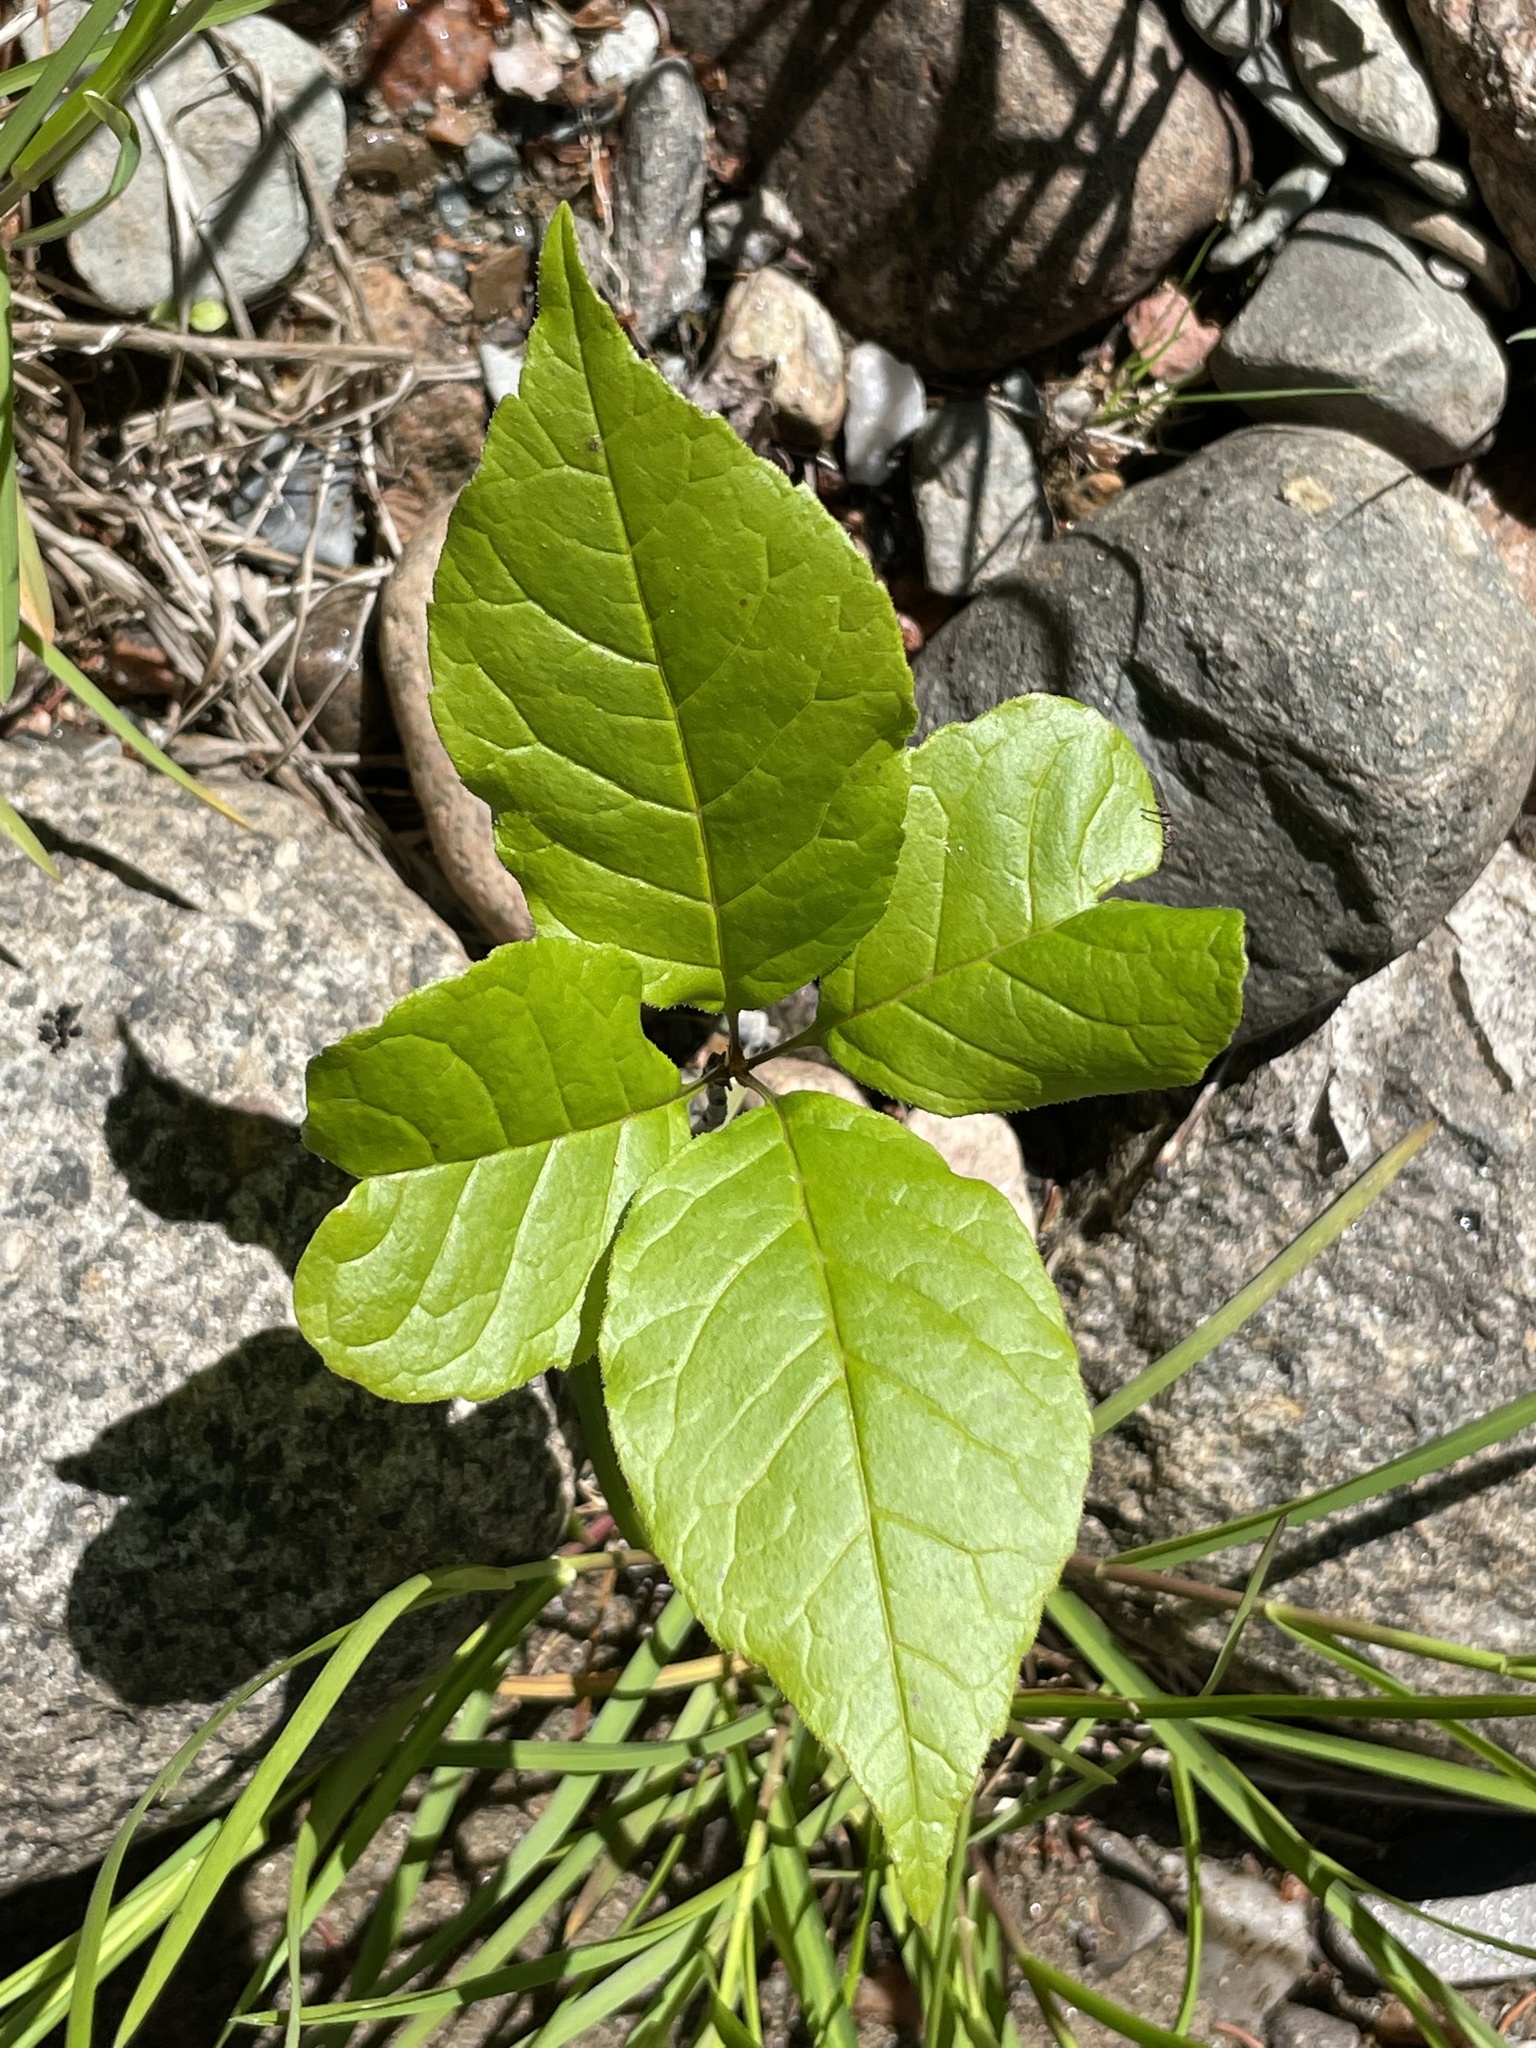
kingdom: Plantae
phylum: Tracheophyta
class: Magnoliopsida
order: Lamiales
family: Oleaceae
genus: Fraxinus
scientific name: Fraxinus americana
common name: White ash
